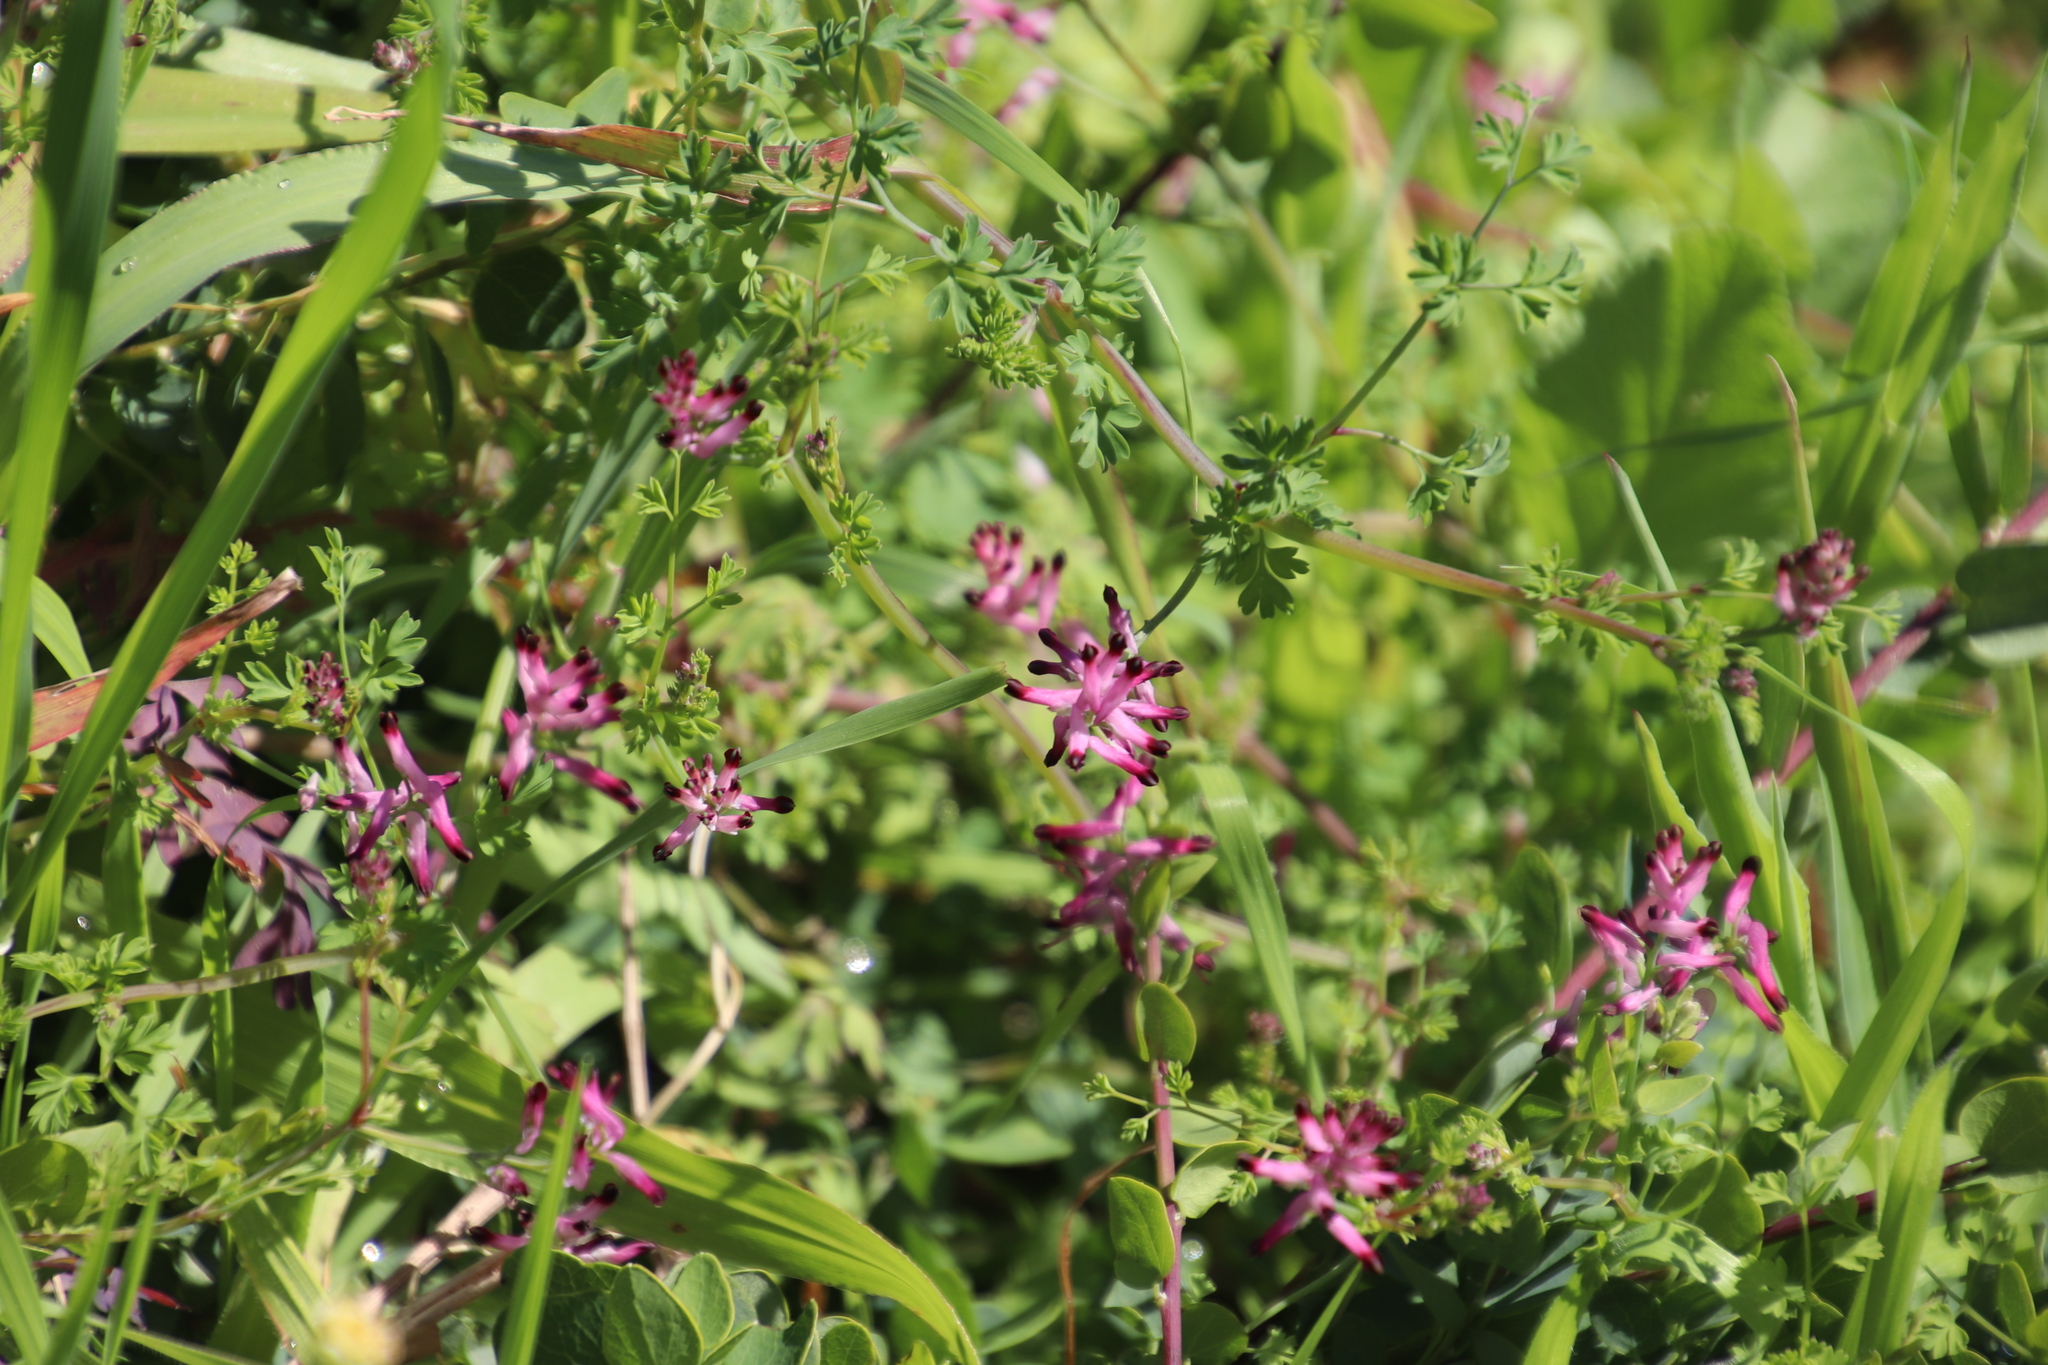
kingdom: Plantae
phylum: Tracheophyta
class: Magnoliopsida
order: Ranunculales
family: Papaveraceae
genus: Fumaria
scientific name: Fumaria muralis
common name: Common ramping-fumitory
